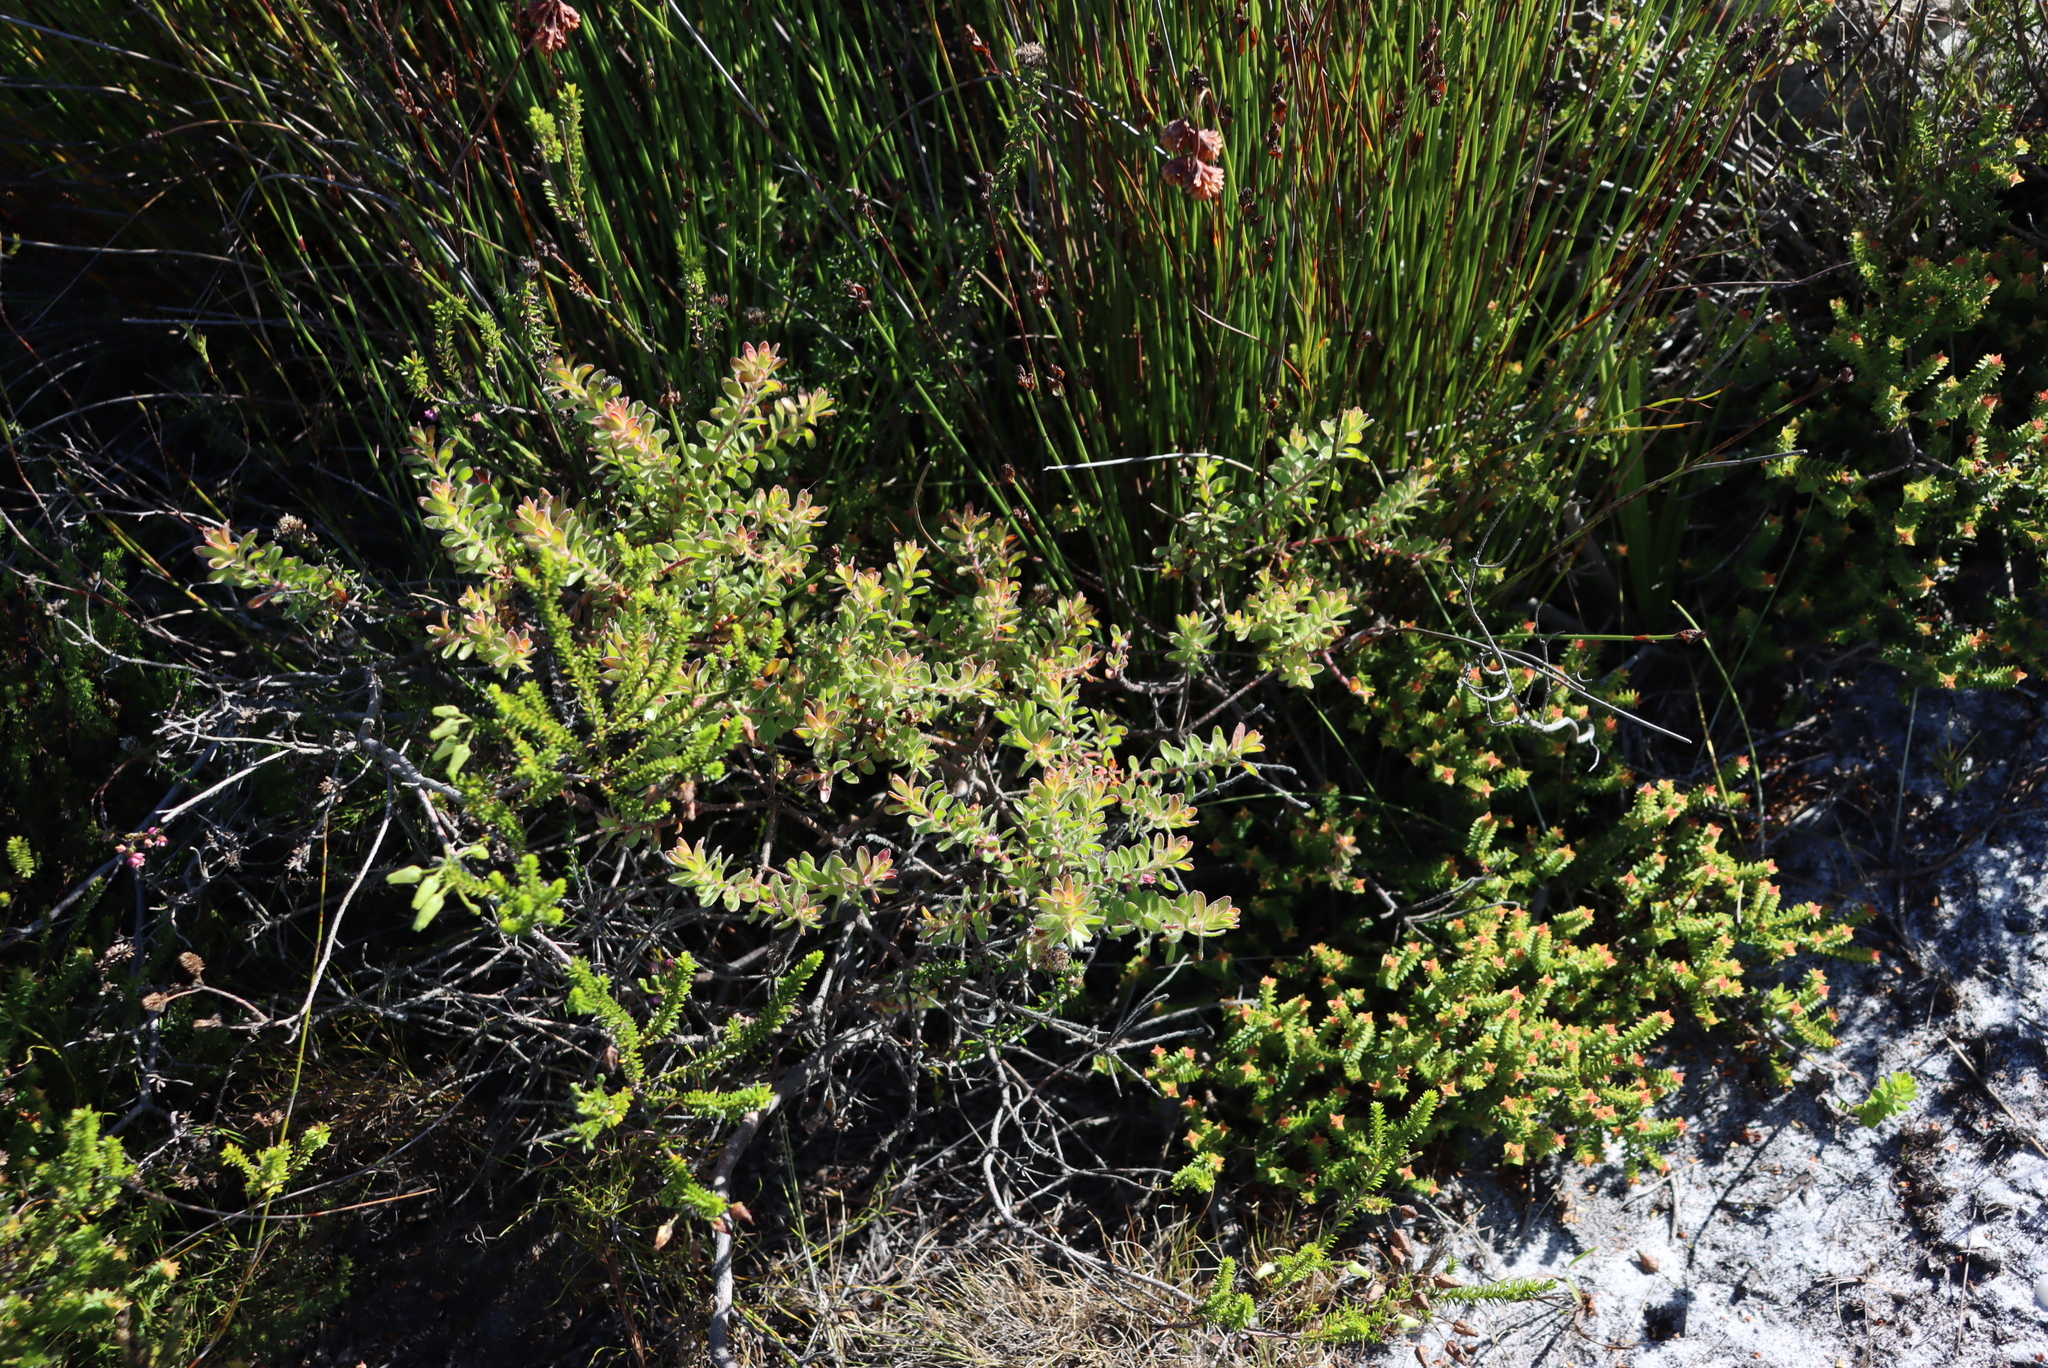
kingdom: Plantae
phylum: Tracheophyta
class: Magnoliopsida
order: Proteales
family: Proteaceae
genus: Diastella
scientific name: Diastella divaricata
